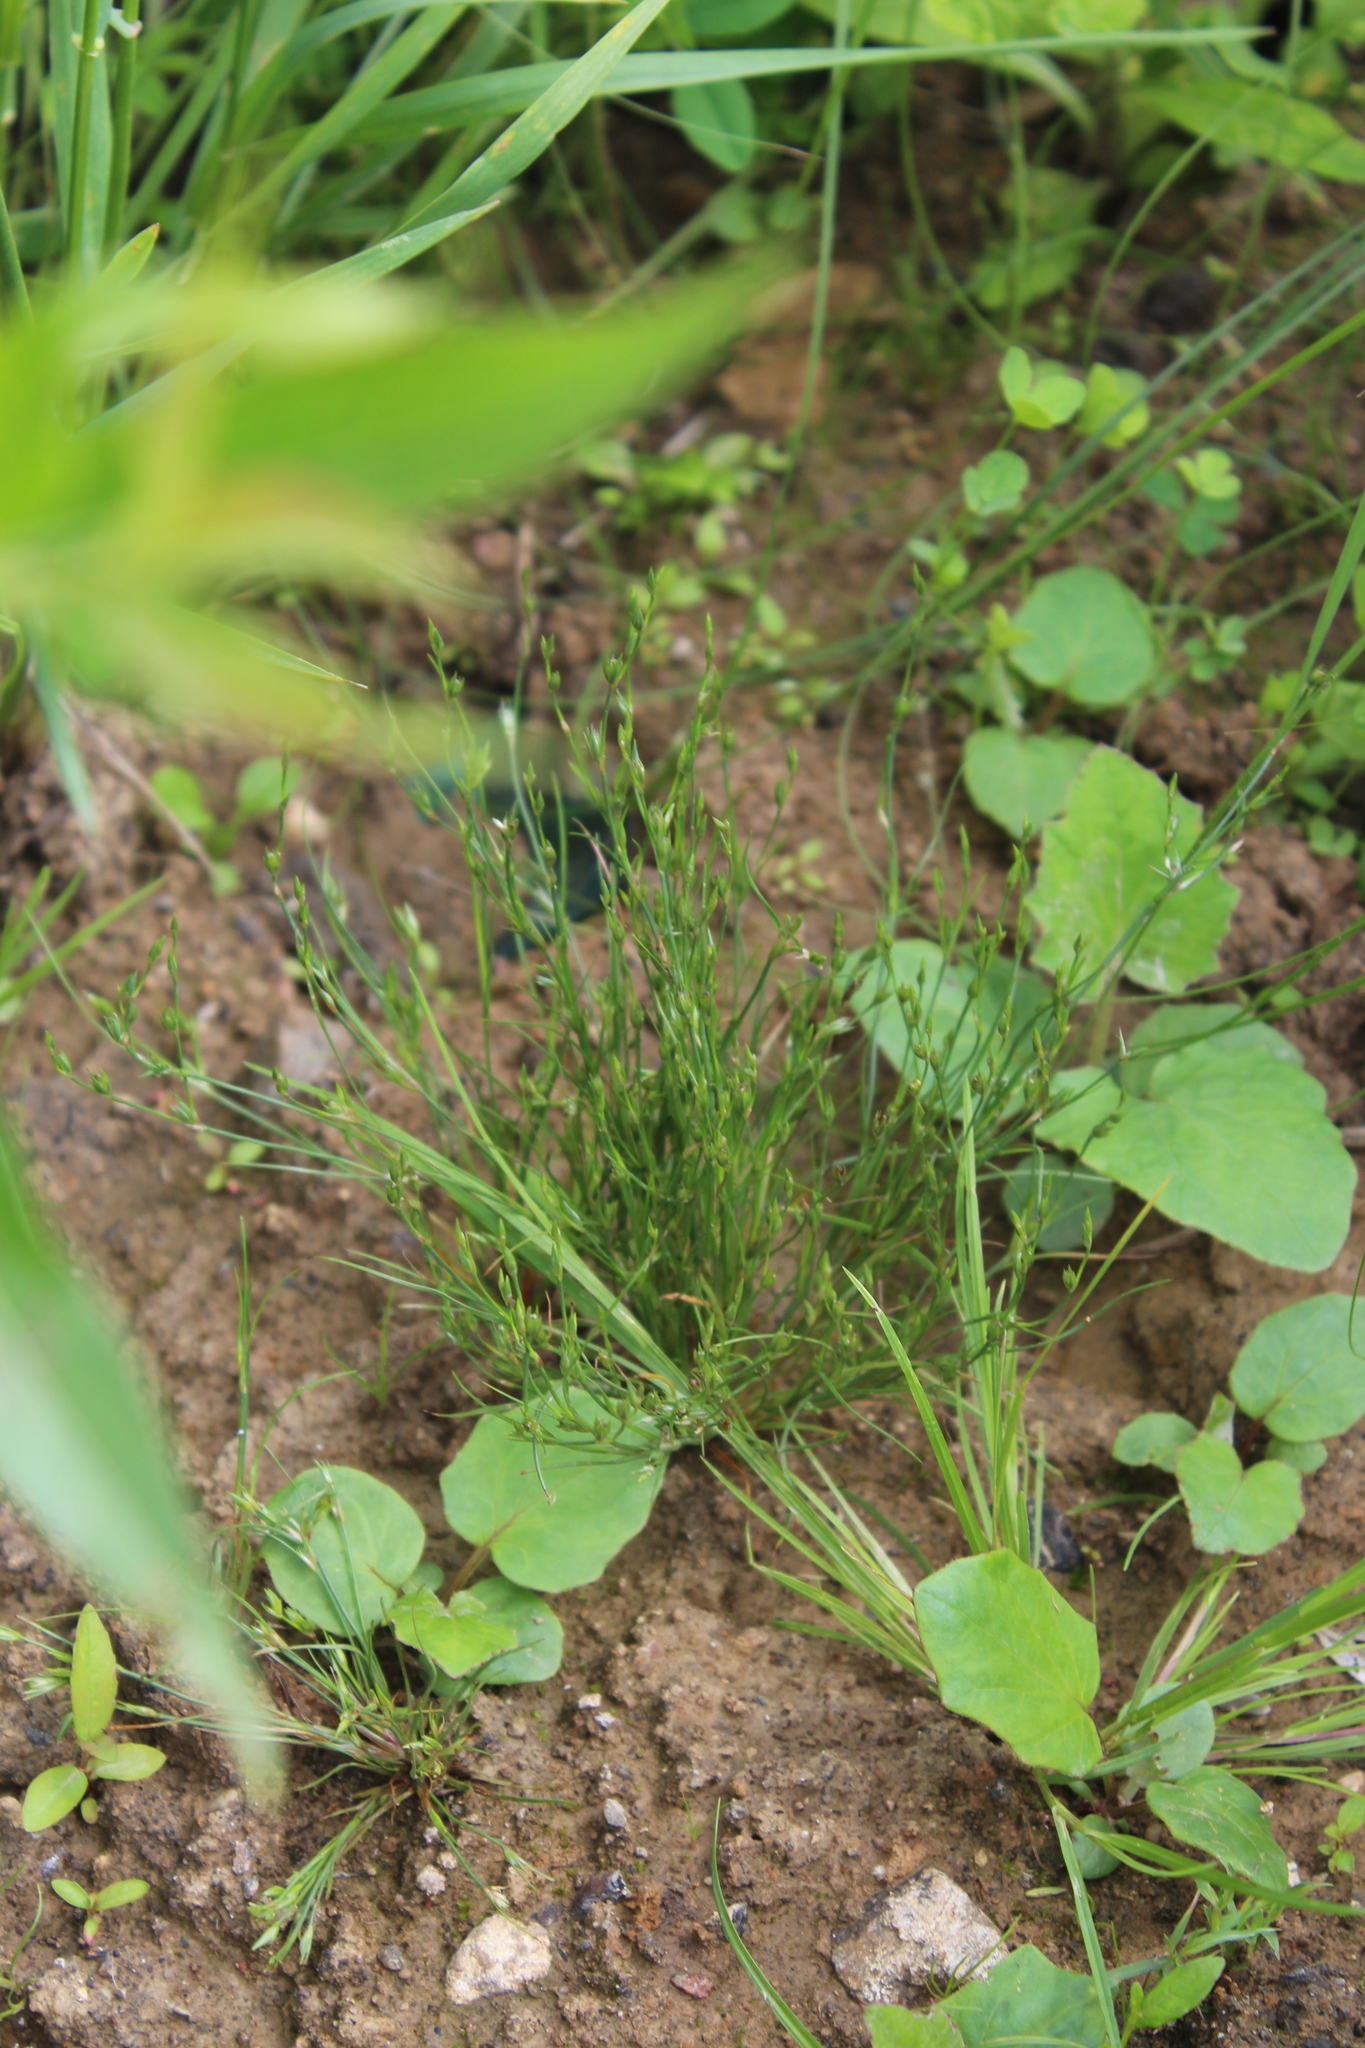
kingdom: Plantae
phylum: Tracheophyta
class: Liliopsida
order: Poales
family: Juncaceae
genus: Juncus
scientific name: Juncus bufonius
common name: Toad rush
